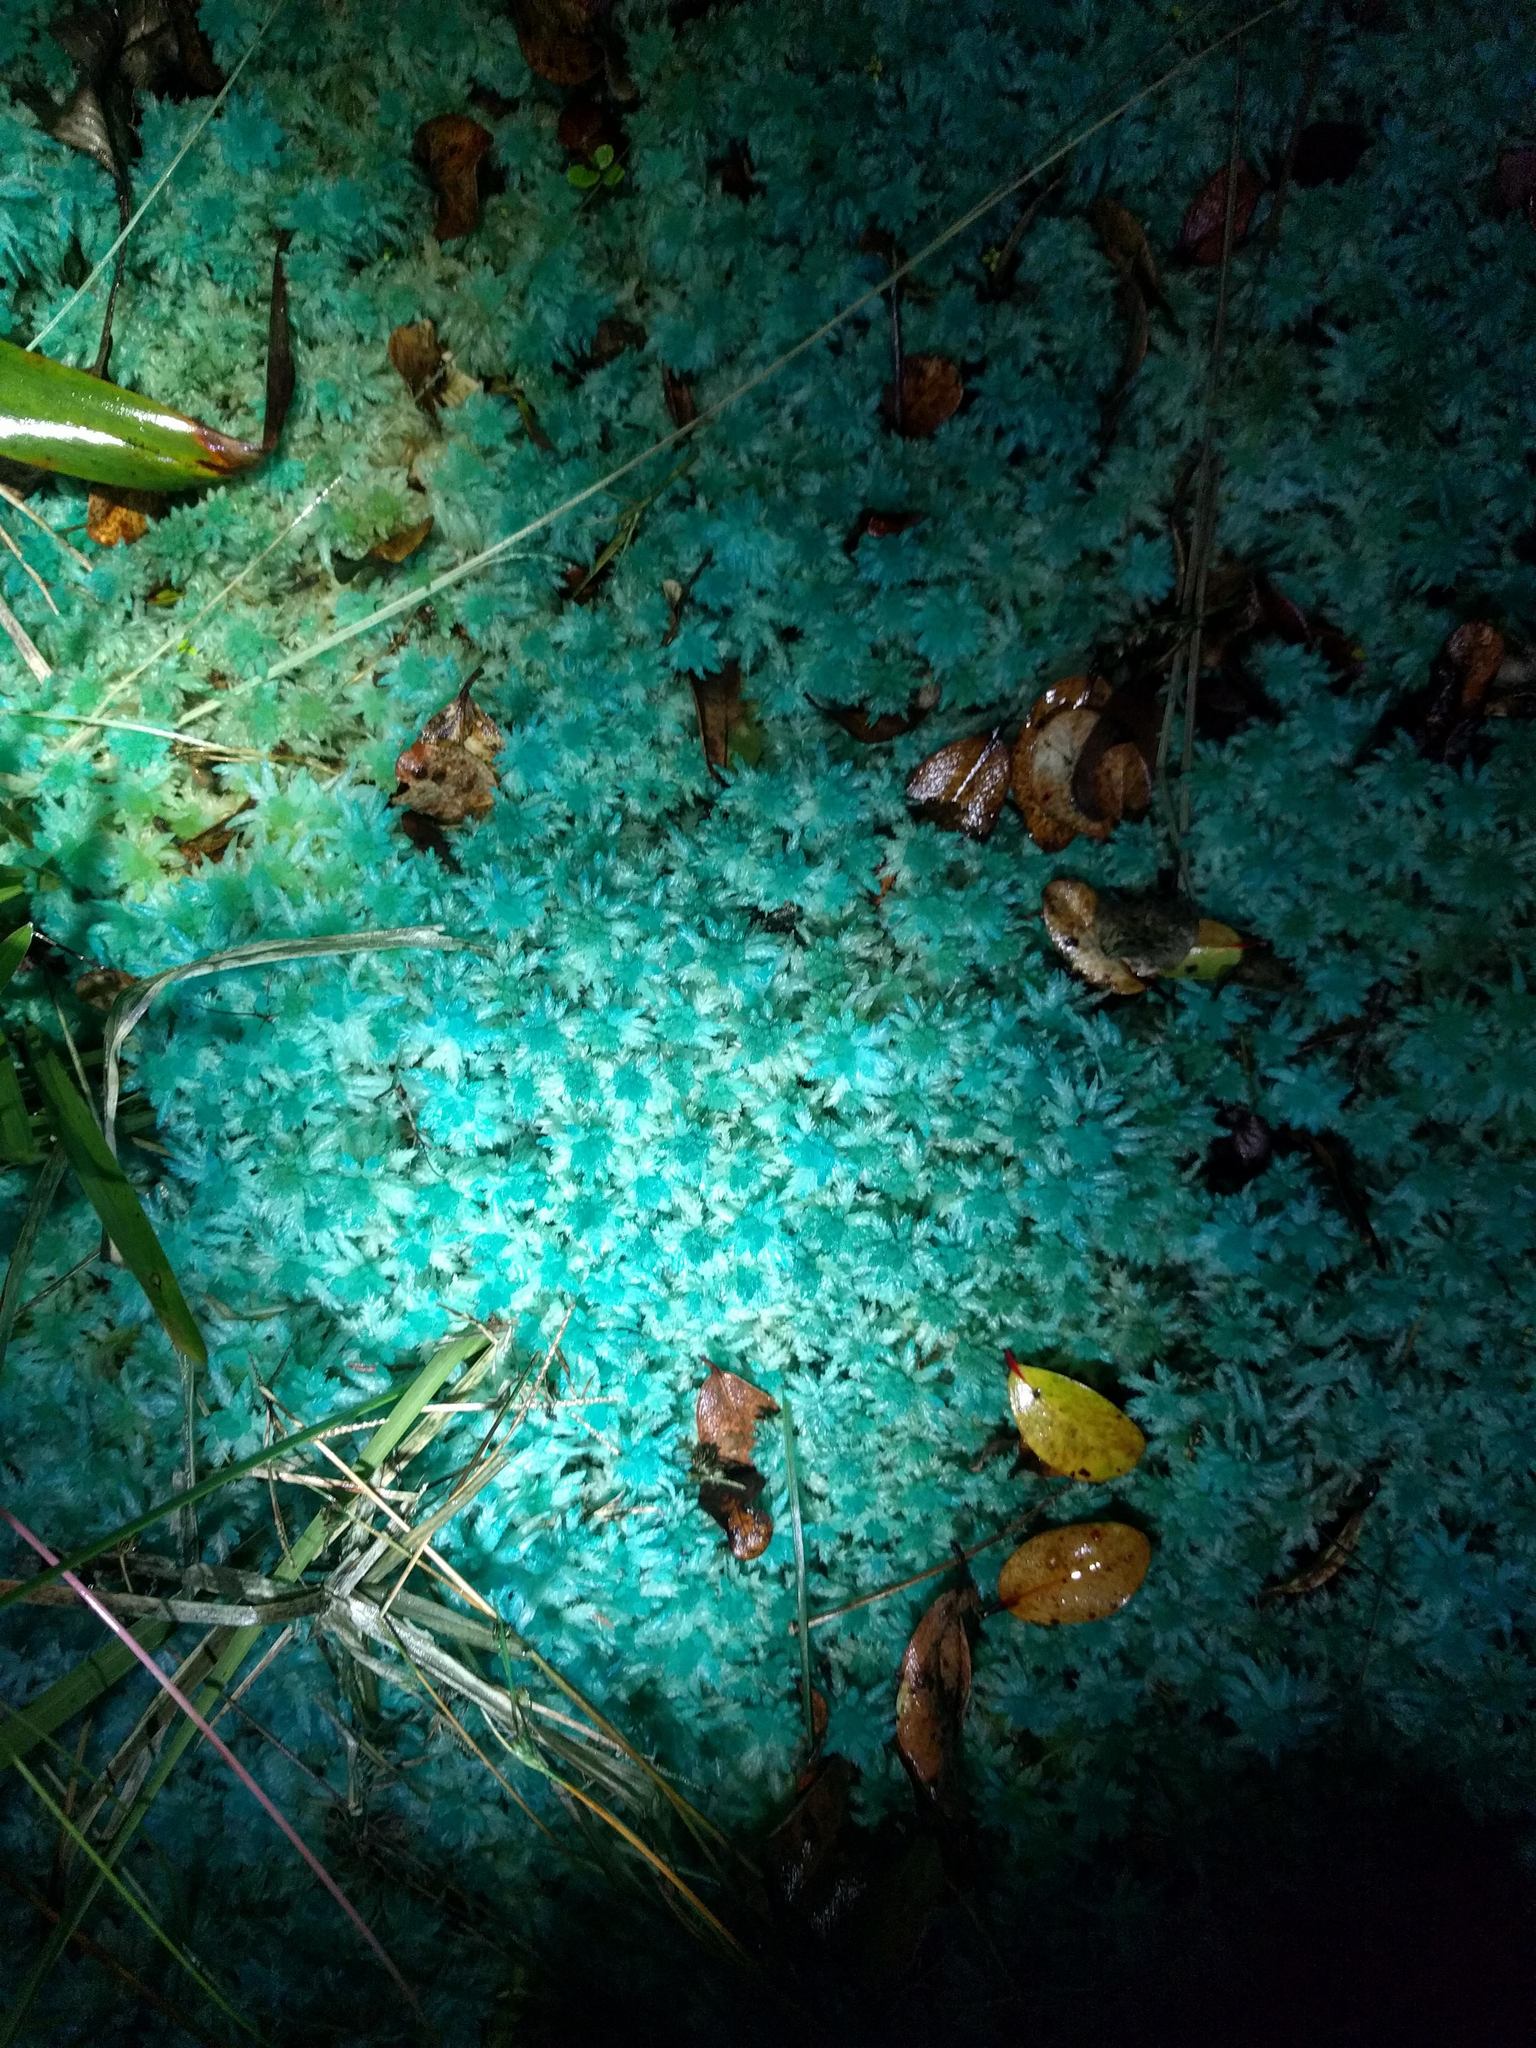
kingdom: Plantae
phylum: Bryophyta
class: Sphagnopsida
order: Sphagnales
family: Sphagnaceae
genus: Sphagnum
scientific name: Sphagnum palustre
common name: Blunt-leaved bog-moss
